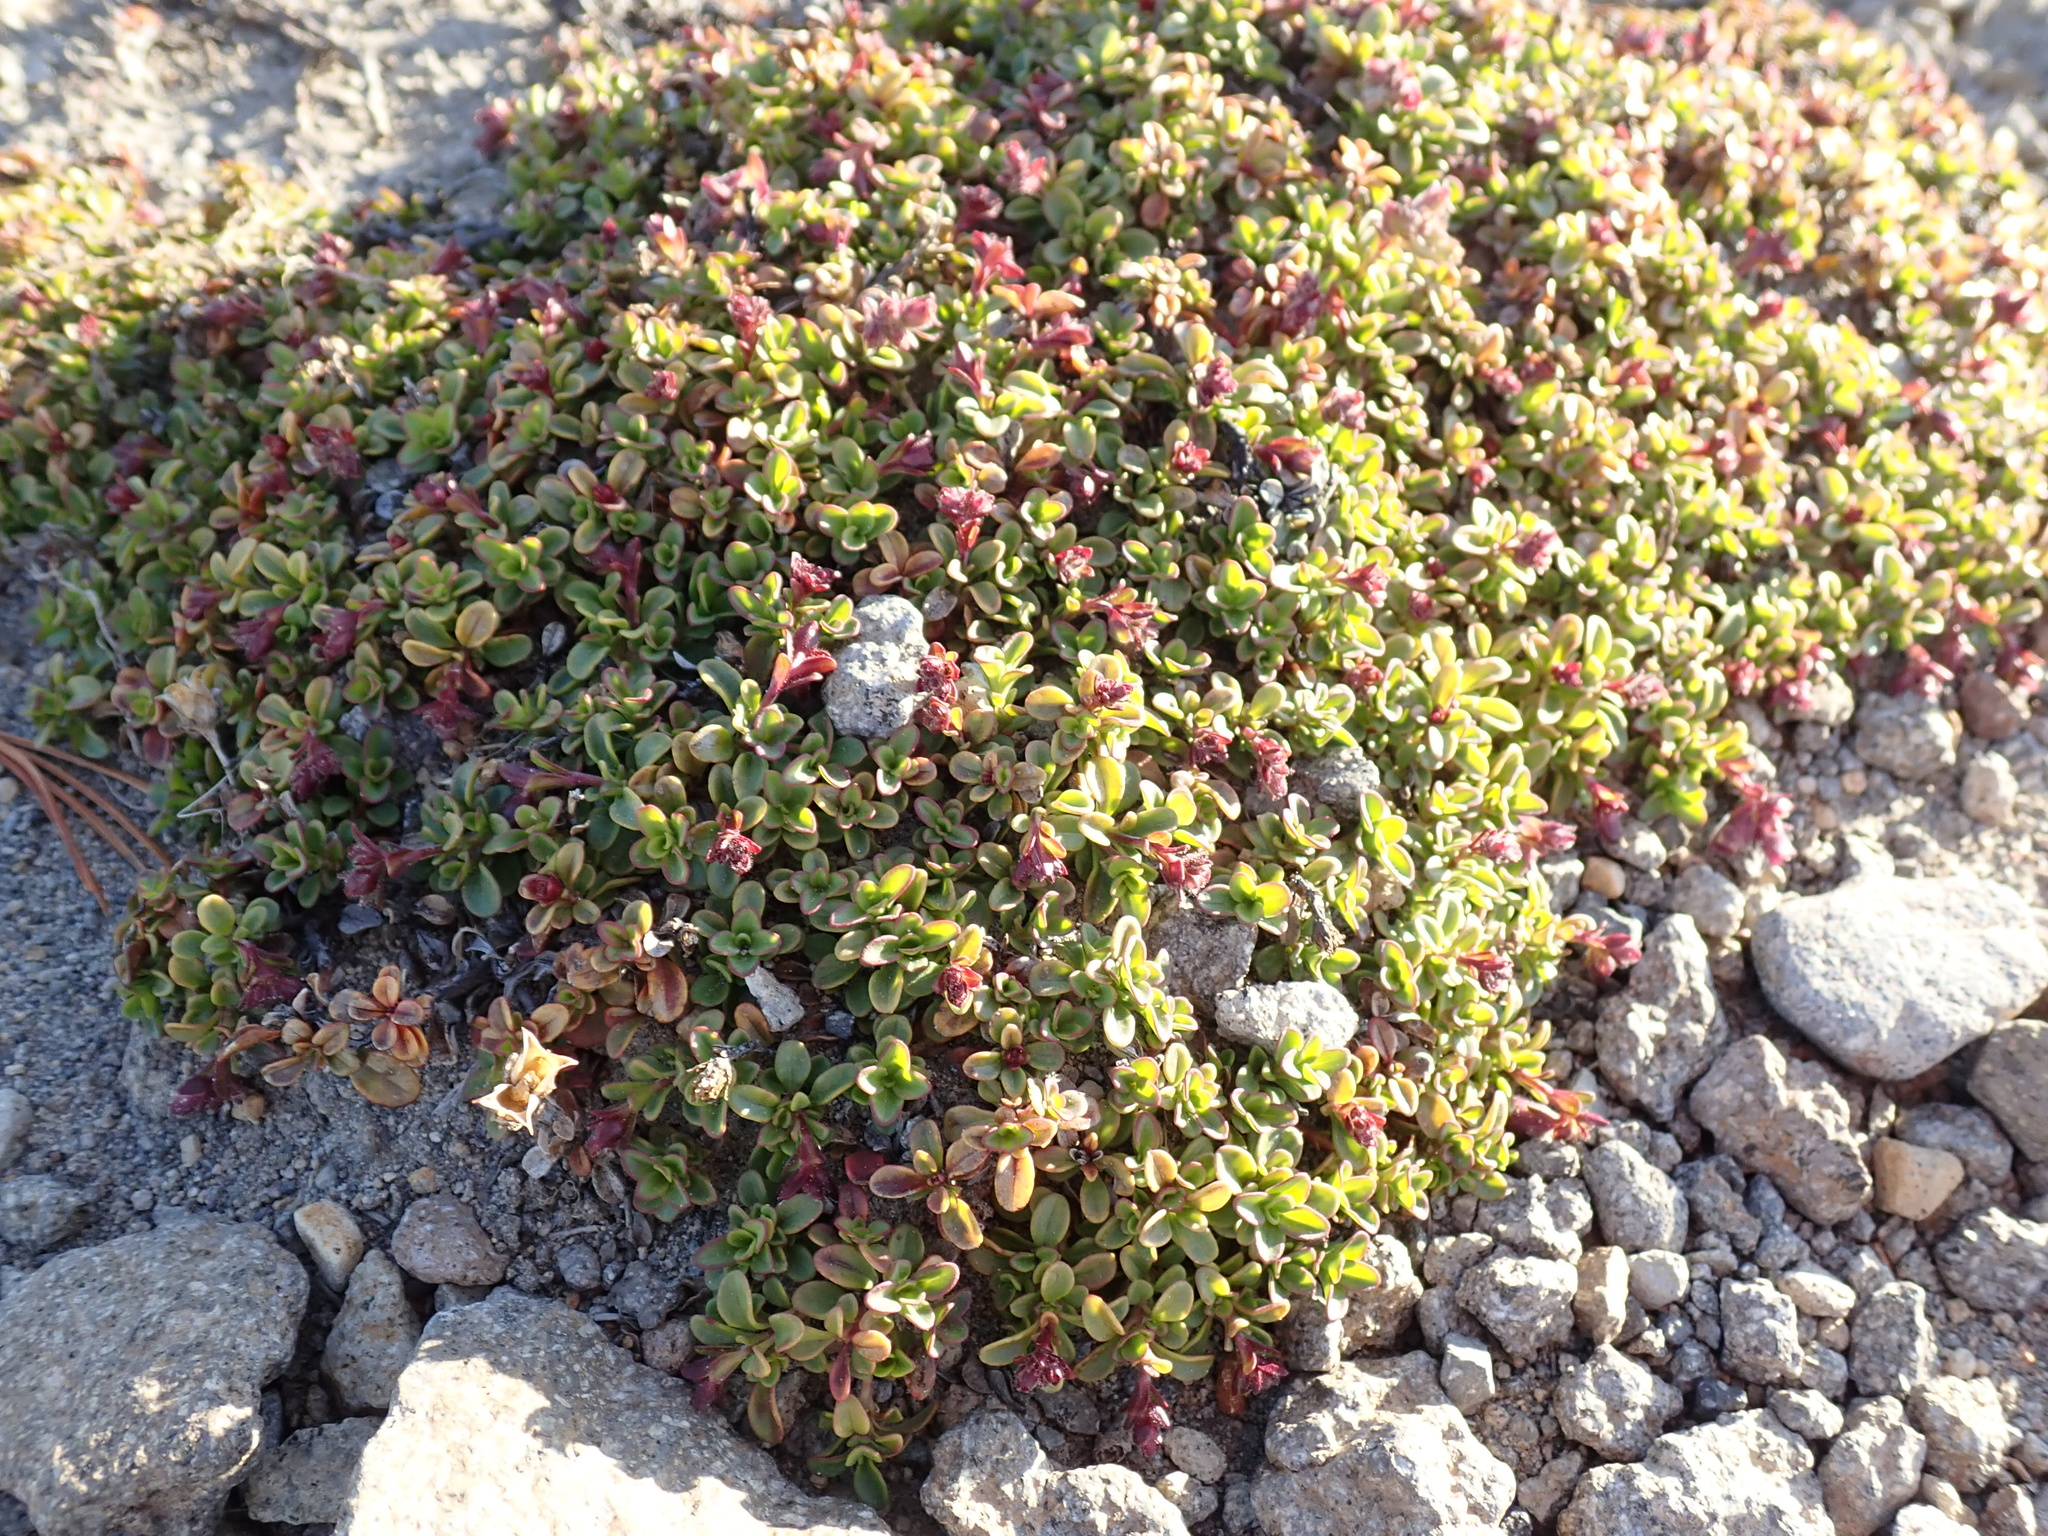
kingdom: Plantae
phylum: Tracheophyta
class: Magnoliopsida
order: Lamiales
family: Plantaginaceae
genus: Penstemon
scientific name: Penstemon davidsonii
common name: Davidson's penstemon
